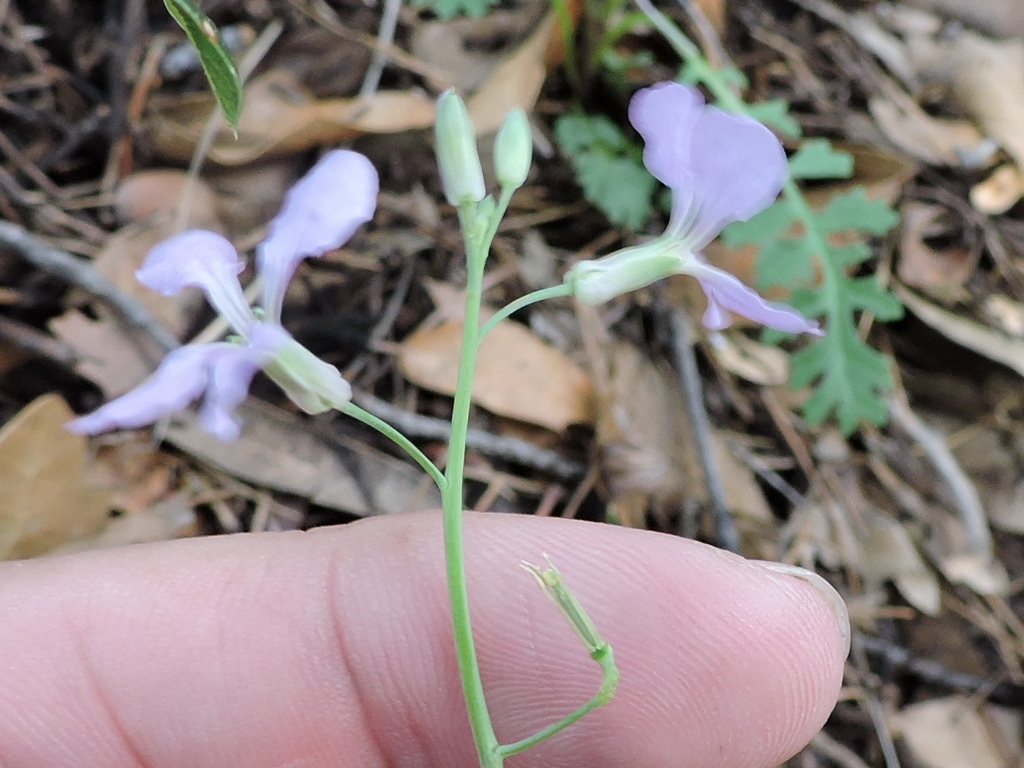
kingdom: Plantae
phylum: Tracheophyta
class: Magnoliopsida
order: Brassicales
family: Brassicaceae
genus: Hesperidanthus
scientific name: Hesperidanthus linearifolius
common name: Slim-leaf plains mustard
